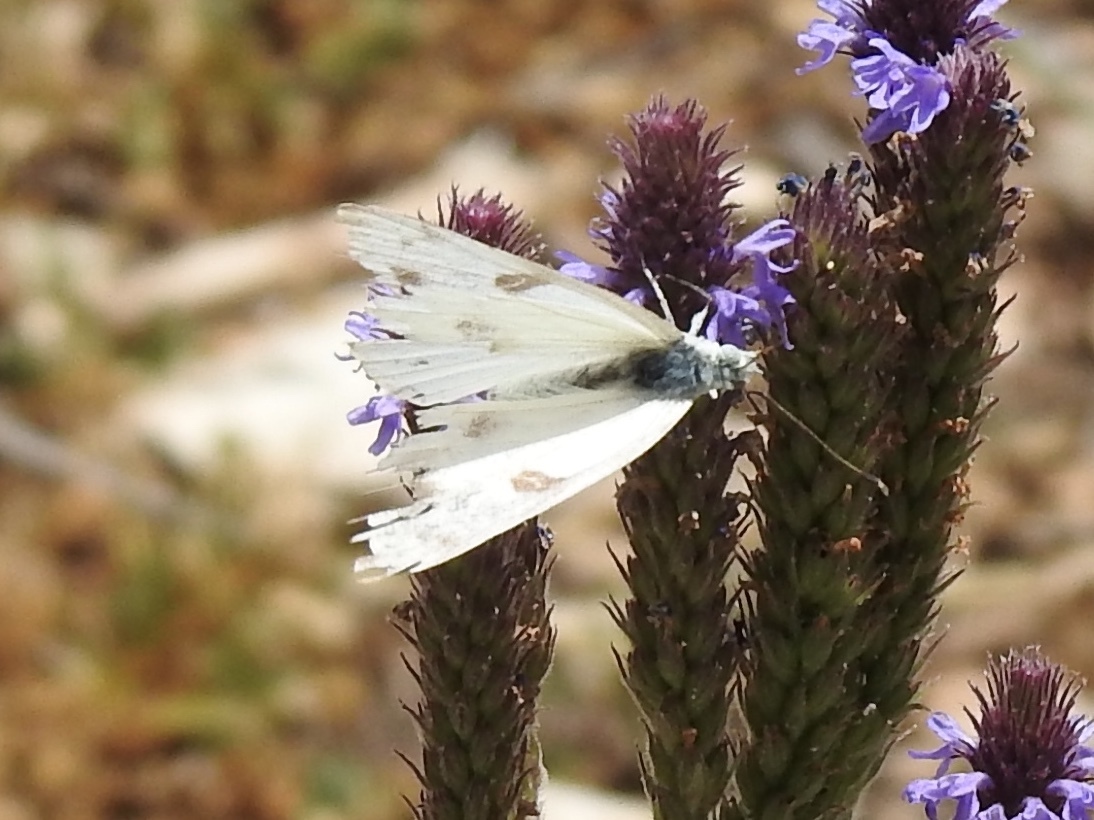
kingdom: Animalia
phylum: Arthropoda
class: Insecta
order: Lepidoptera
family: Pieridae
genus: Pontia
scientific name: Pontia protodice
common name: Checkered white
